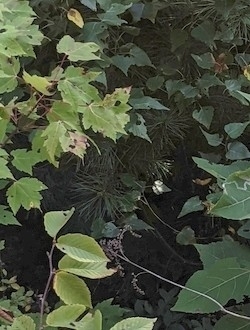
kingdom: Plantae
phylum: Tracheophyta
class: Magnoliopsida
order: Sapindales
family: Sapindaceae
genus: Acer
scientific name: Acer rubrum
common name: Red maple
